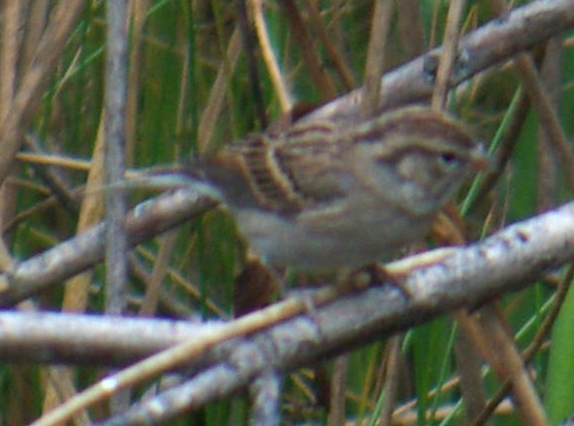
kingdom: Animalia
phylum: Chordata
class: Aves
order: Passeriformes
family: Passerellidae
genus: Spizella
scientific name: Spizella passerina
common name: Chipping sparrow
